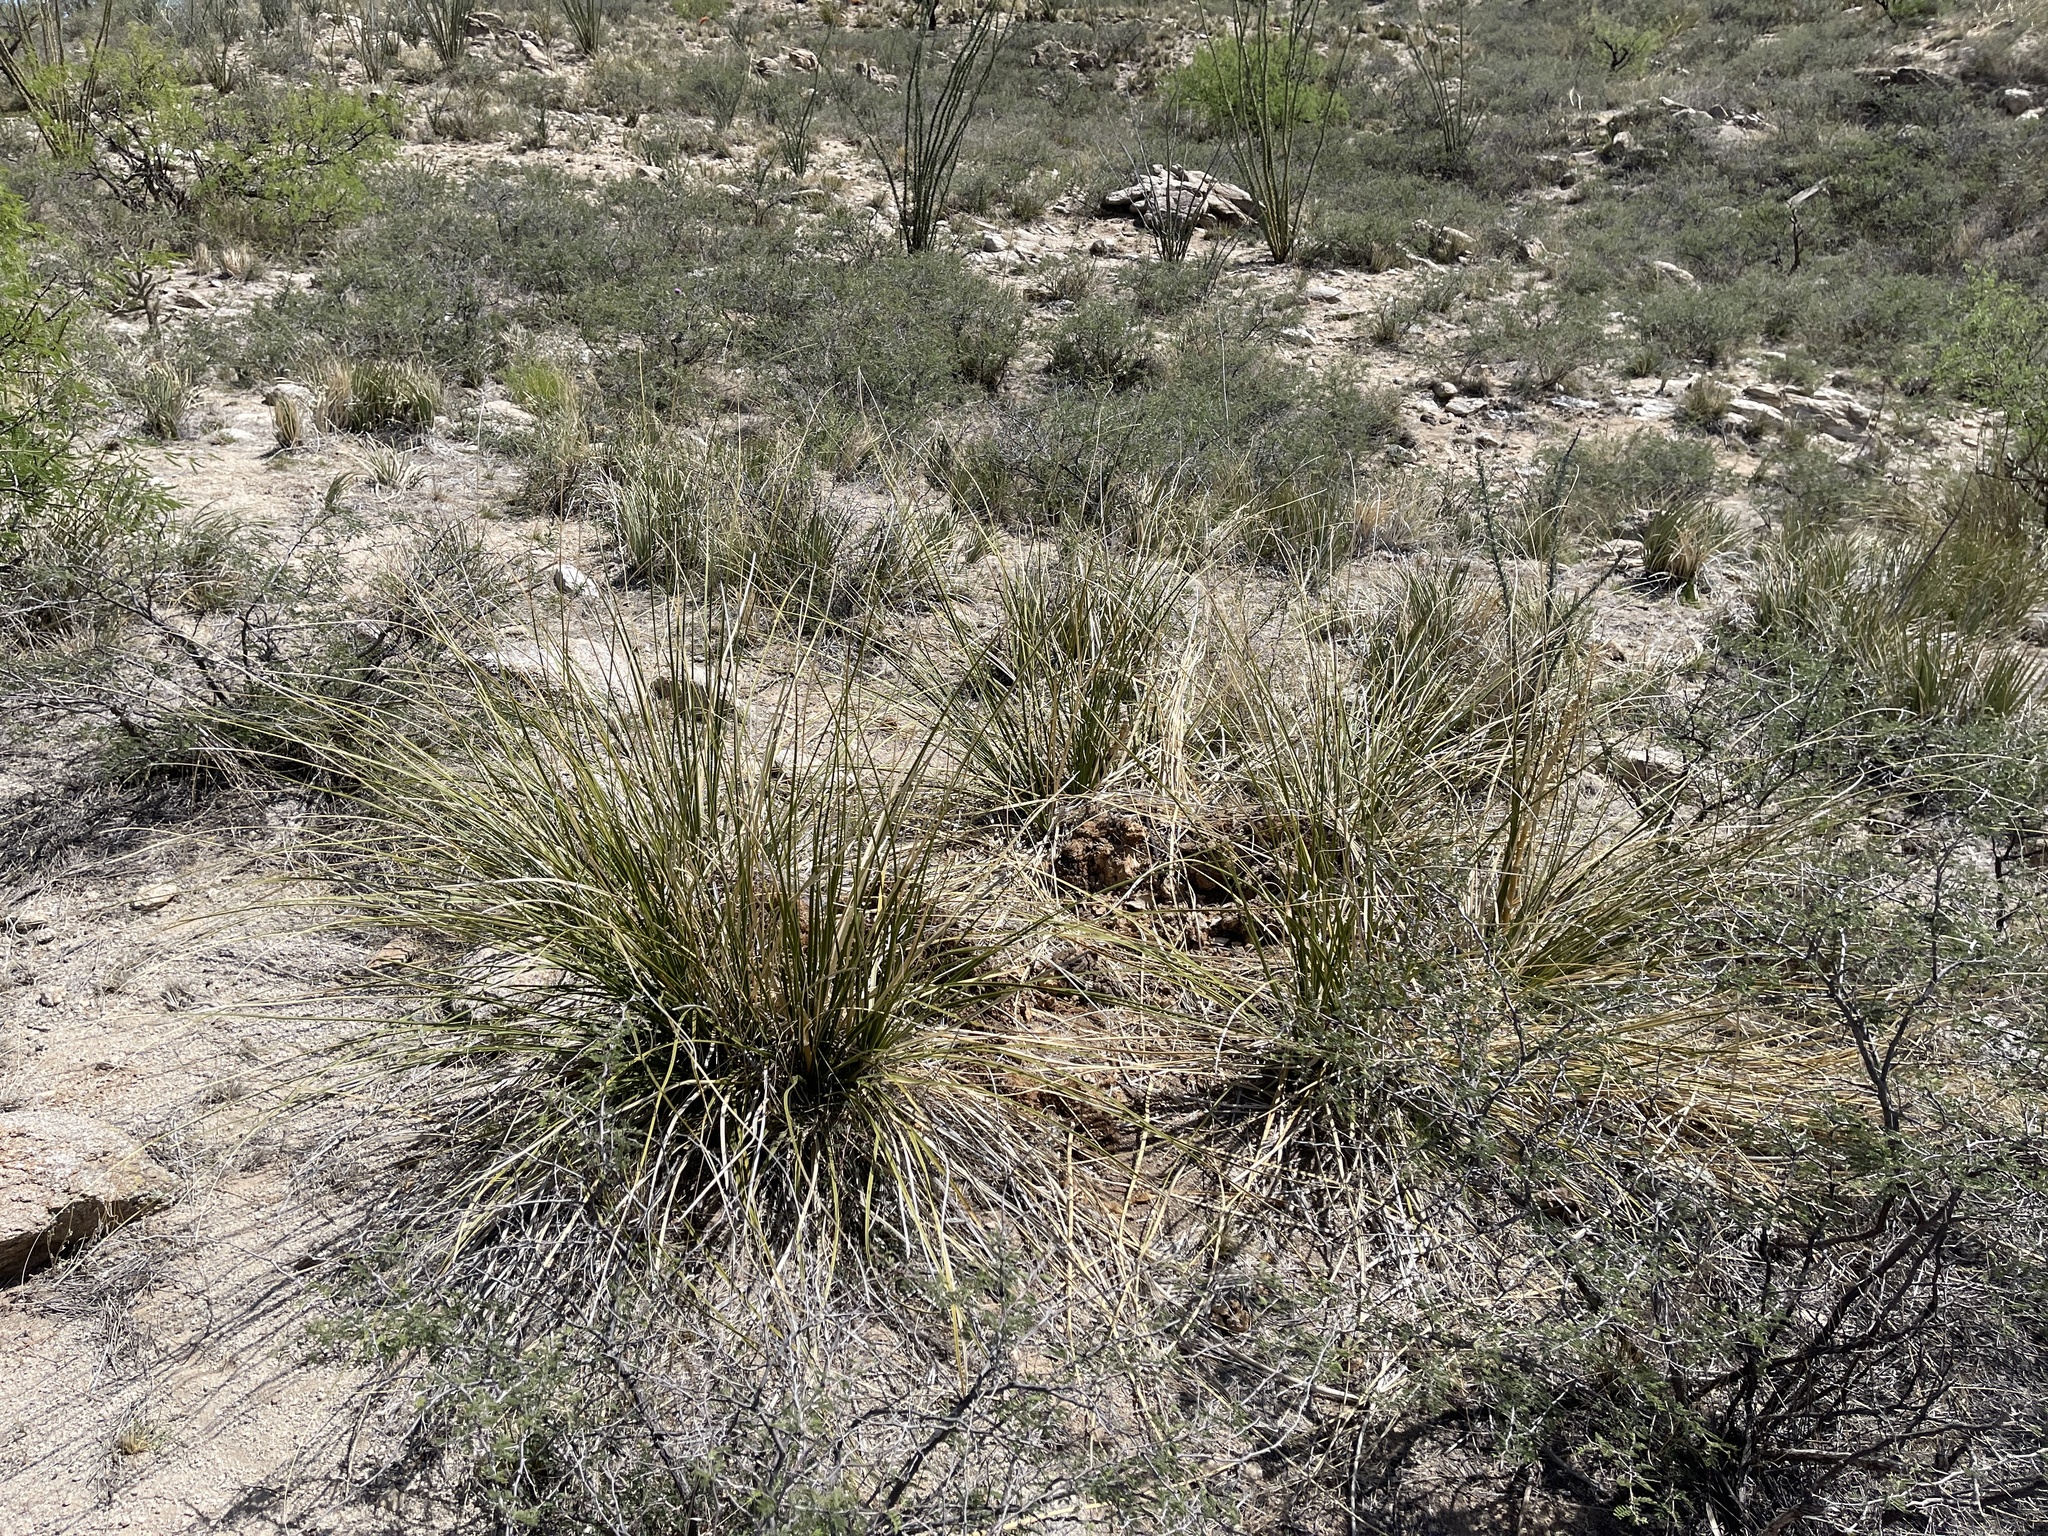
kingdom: Plantae
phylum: Tracheophyta
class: Liliopsida
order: Asparagales
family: Asparagaceae
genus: Nolina
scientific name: Nolina microcarpa
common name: Bear-grass
